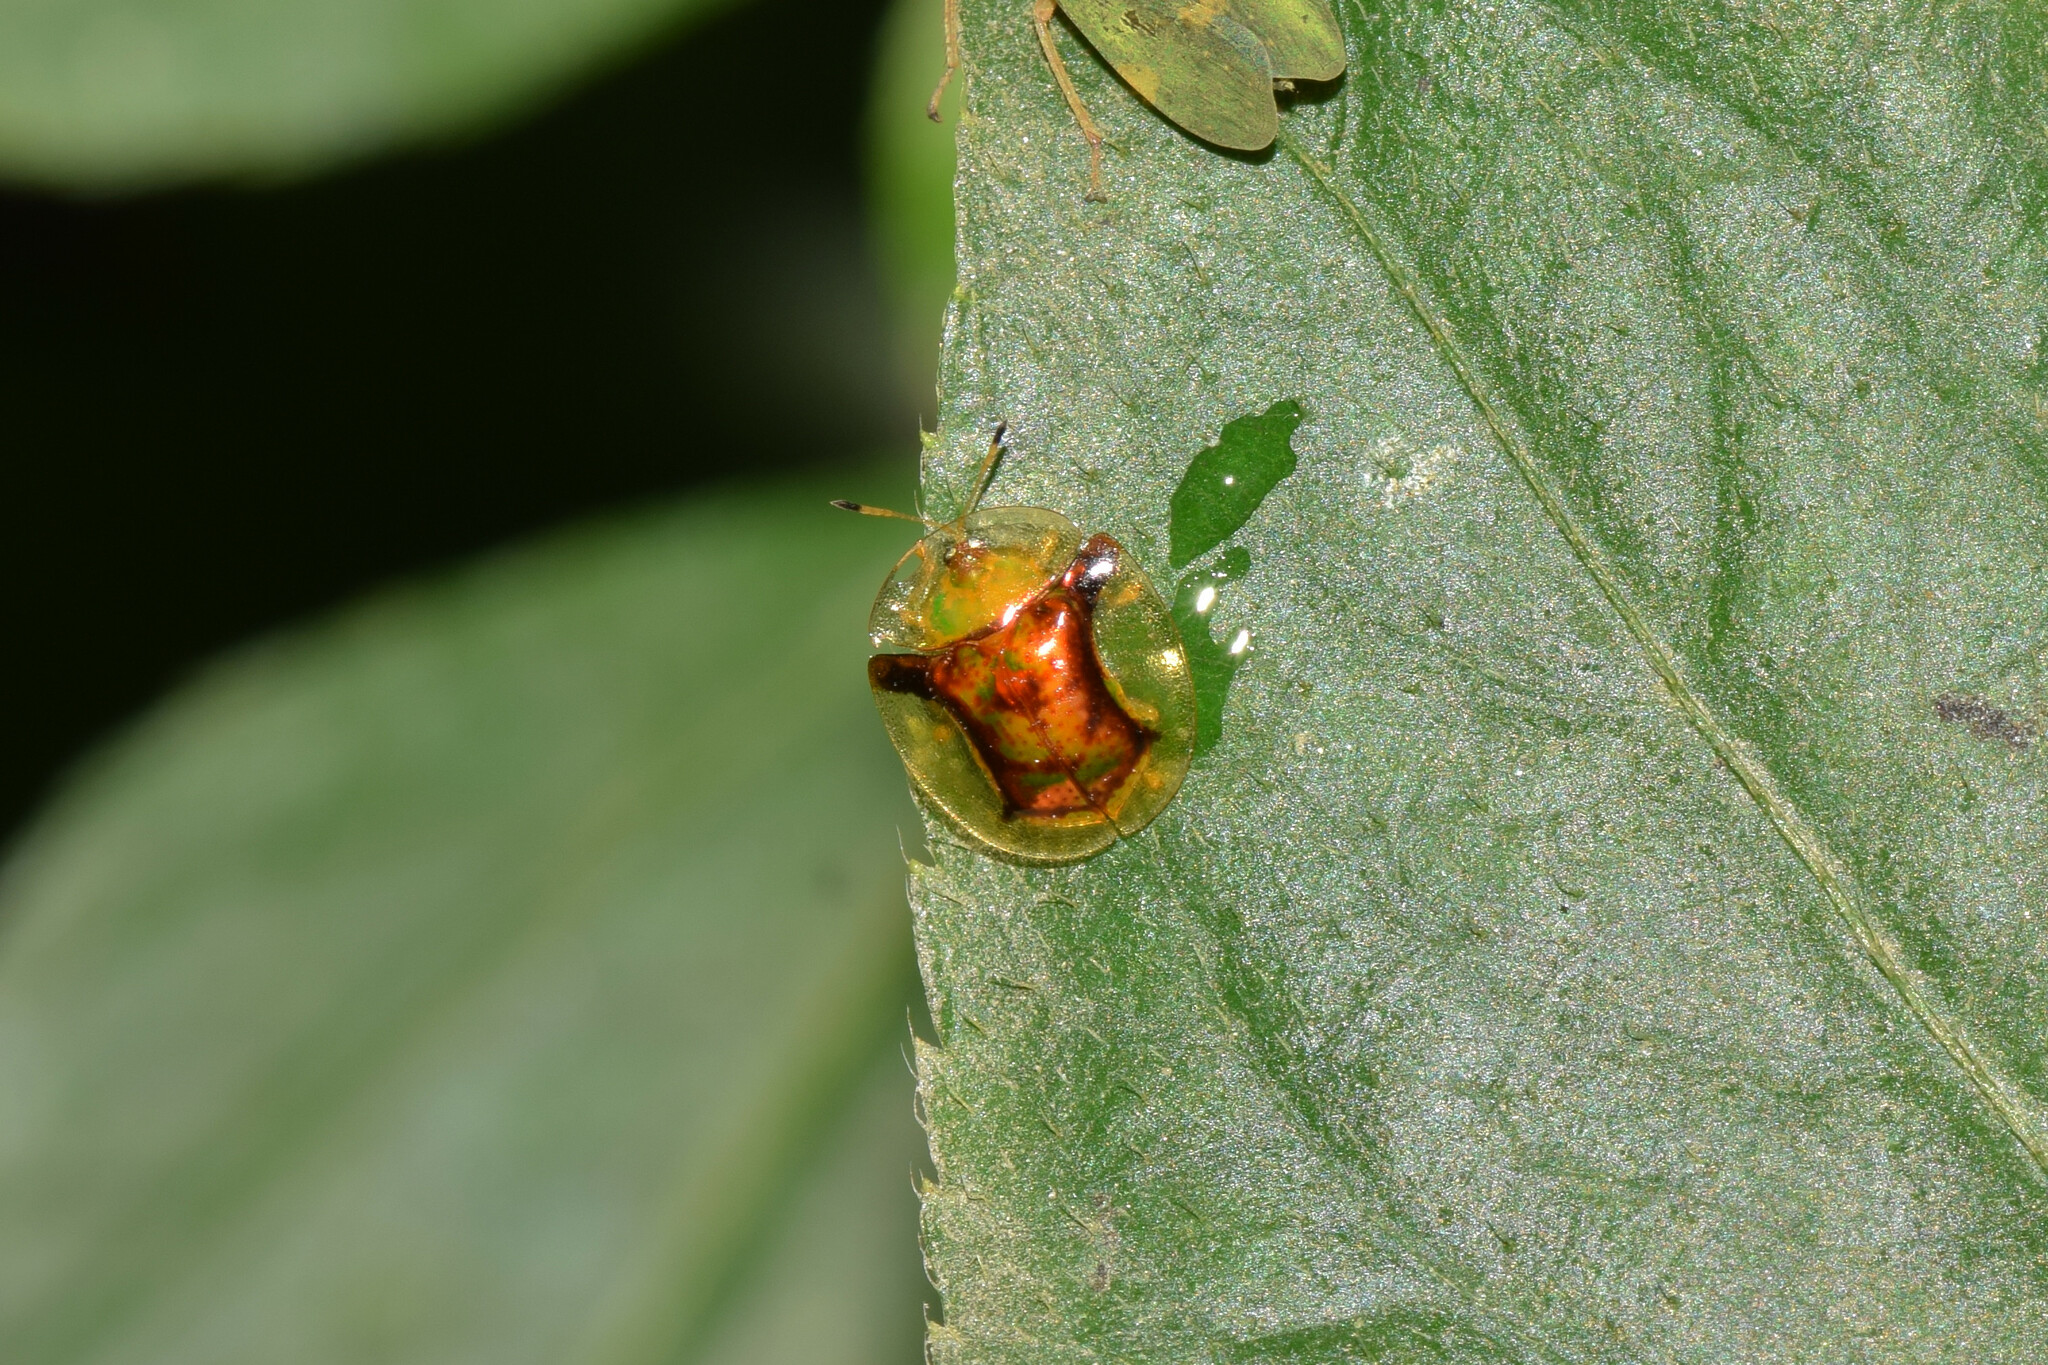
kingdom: Animalia
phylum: Arthropoda
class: Insecta
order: Coleoptera
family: Chrysomelidae
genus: Aspidimorpha
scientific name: Aspidimorpha furcata
